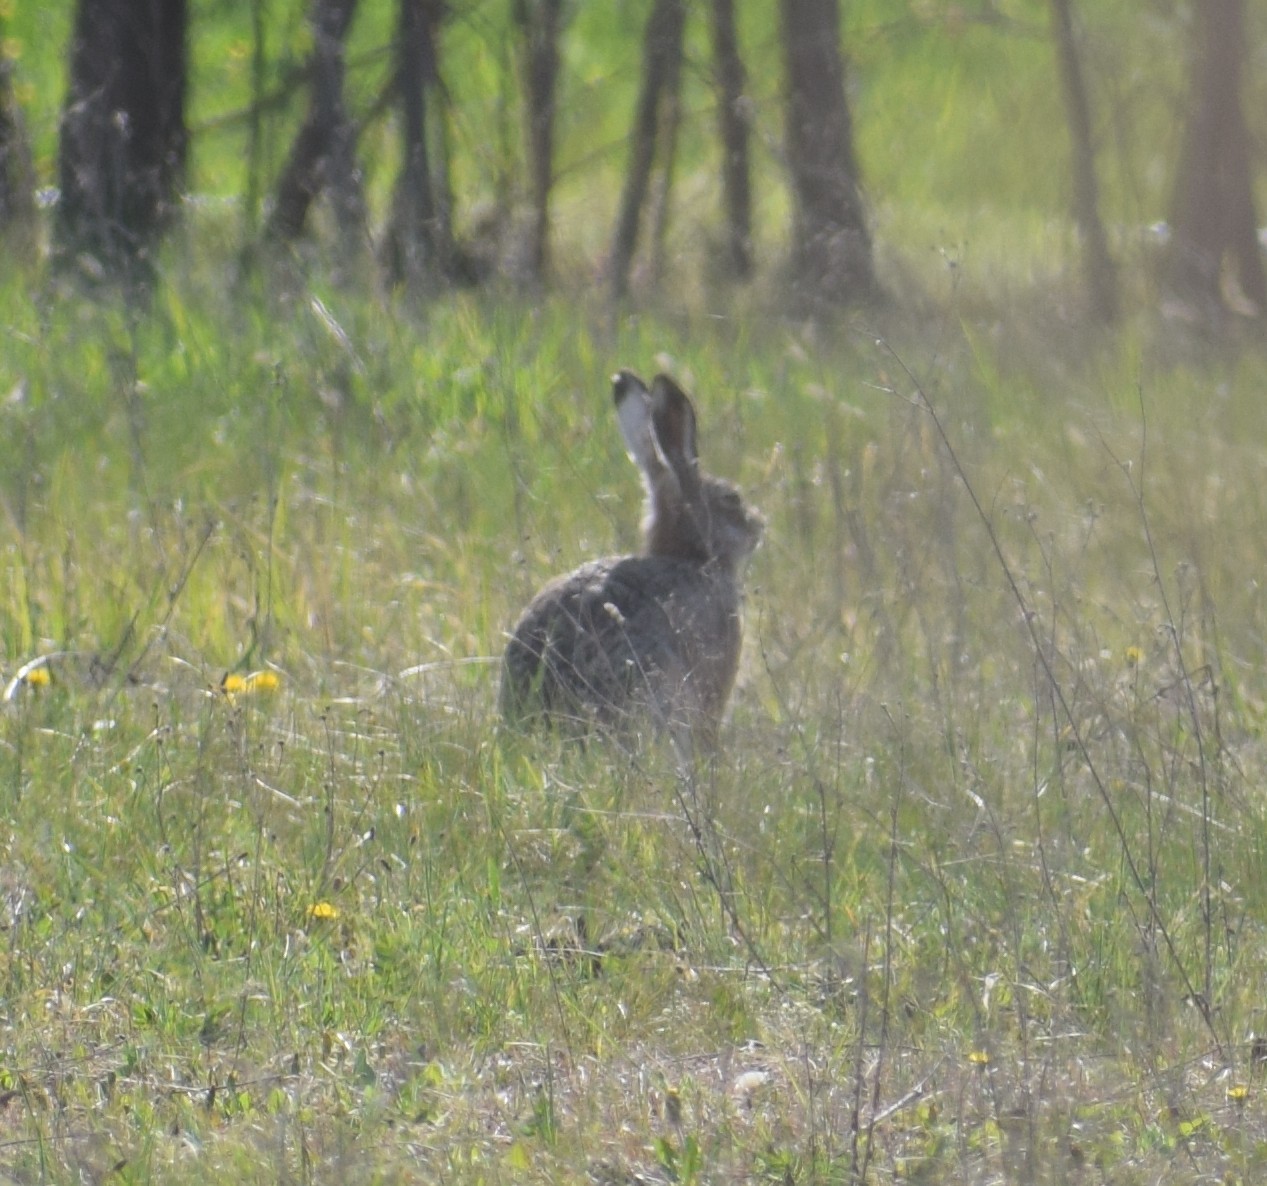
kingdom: Animalia
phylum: Chordata
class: Mammalia
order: Lagomorpha
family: Leporidae
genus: Lepus
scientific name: Lepus europaeus
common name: European hare
